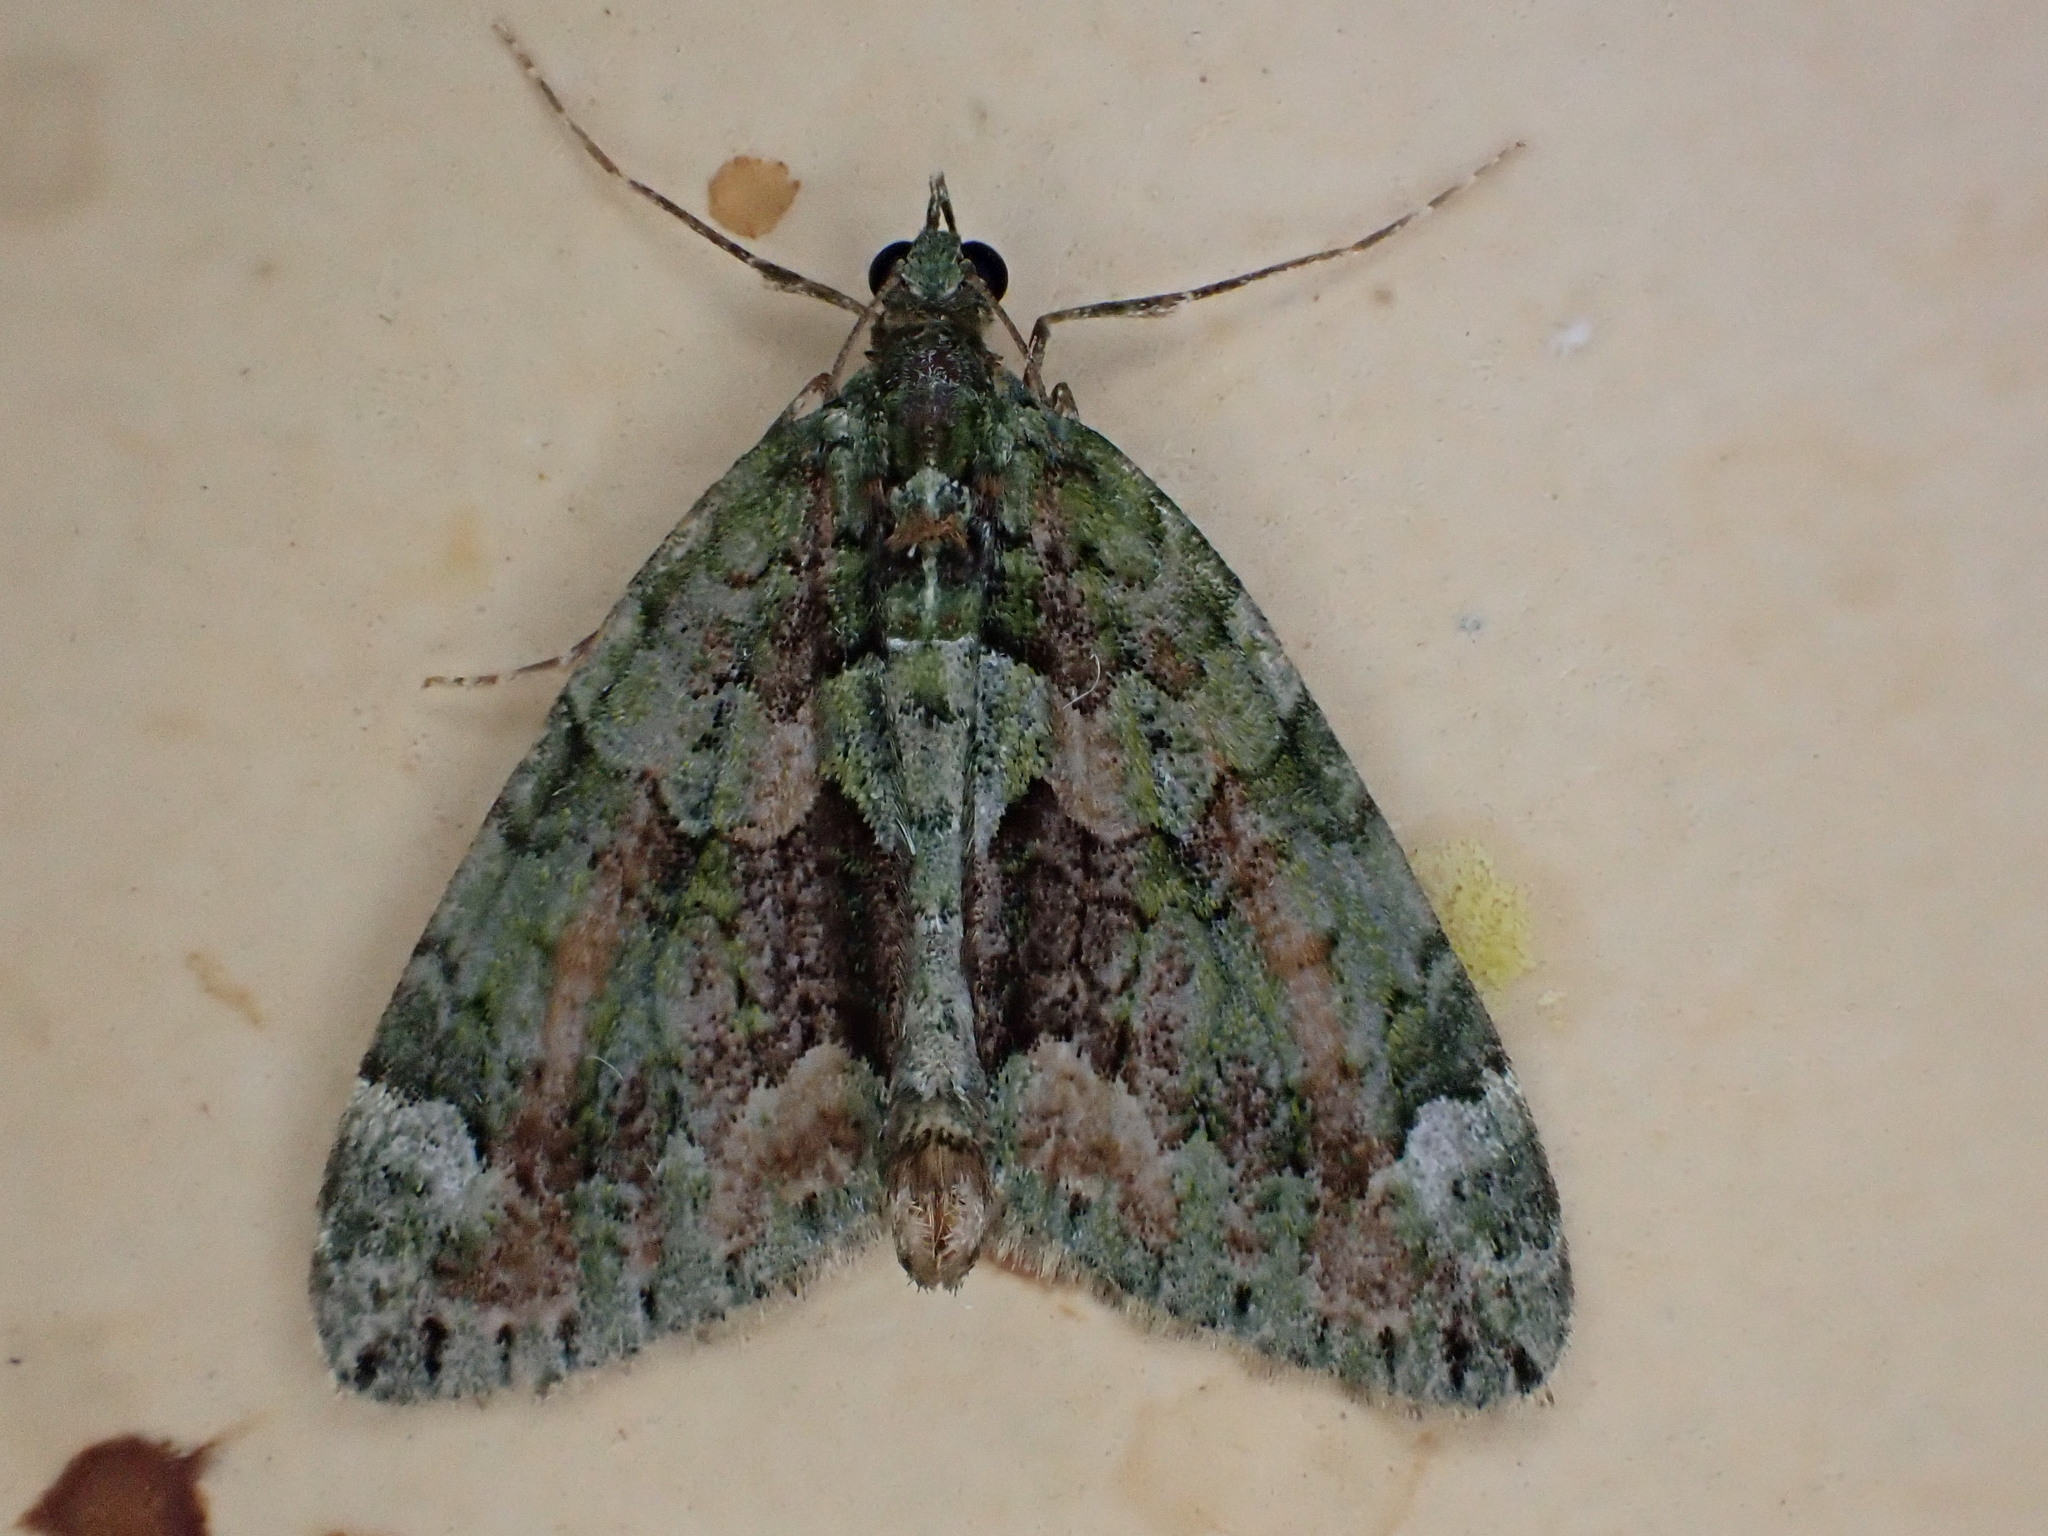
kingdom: Animalia
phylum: Arthropoda
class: Insecta
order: Lepidoptera
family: Geometridae
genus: Chloroclysta
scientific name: Chloroclysta siterata
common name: Red-green carpet
